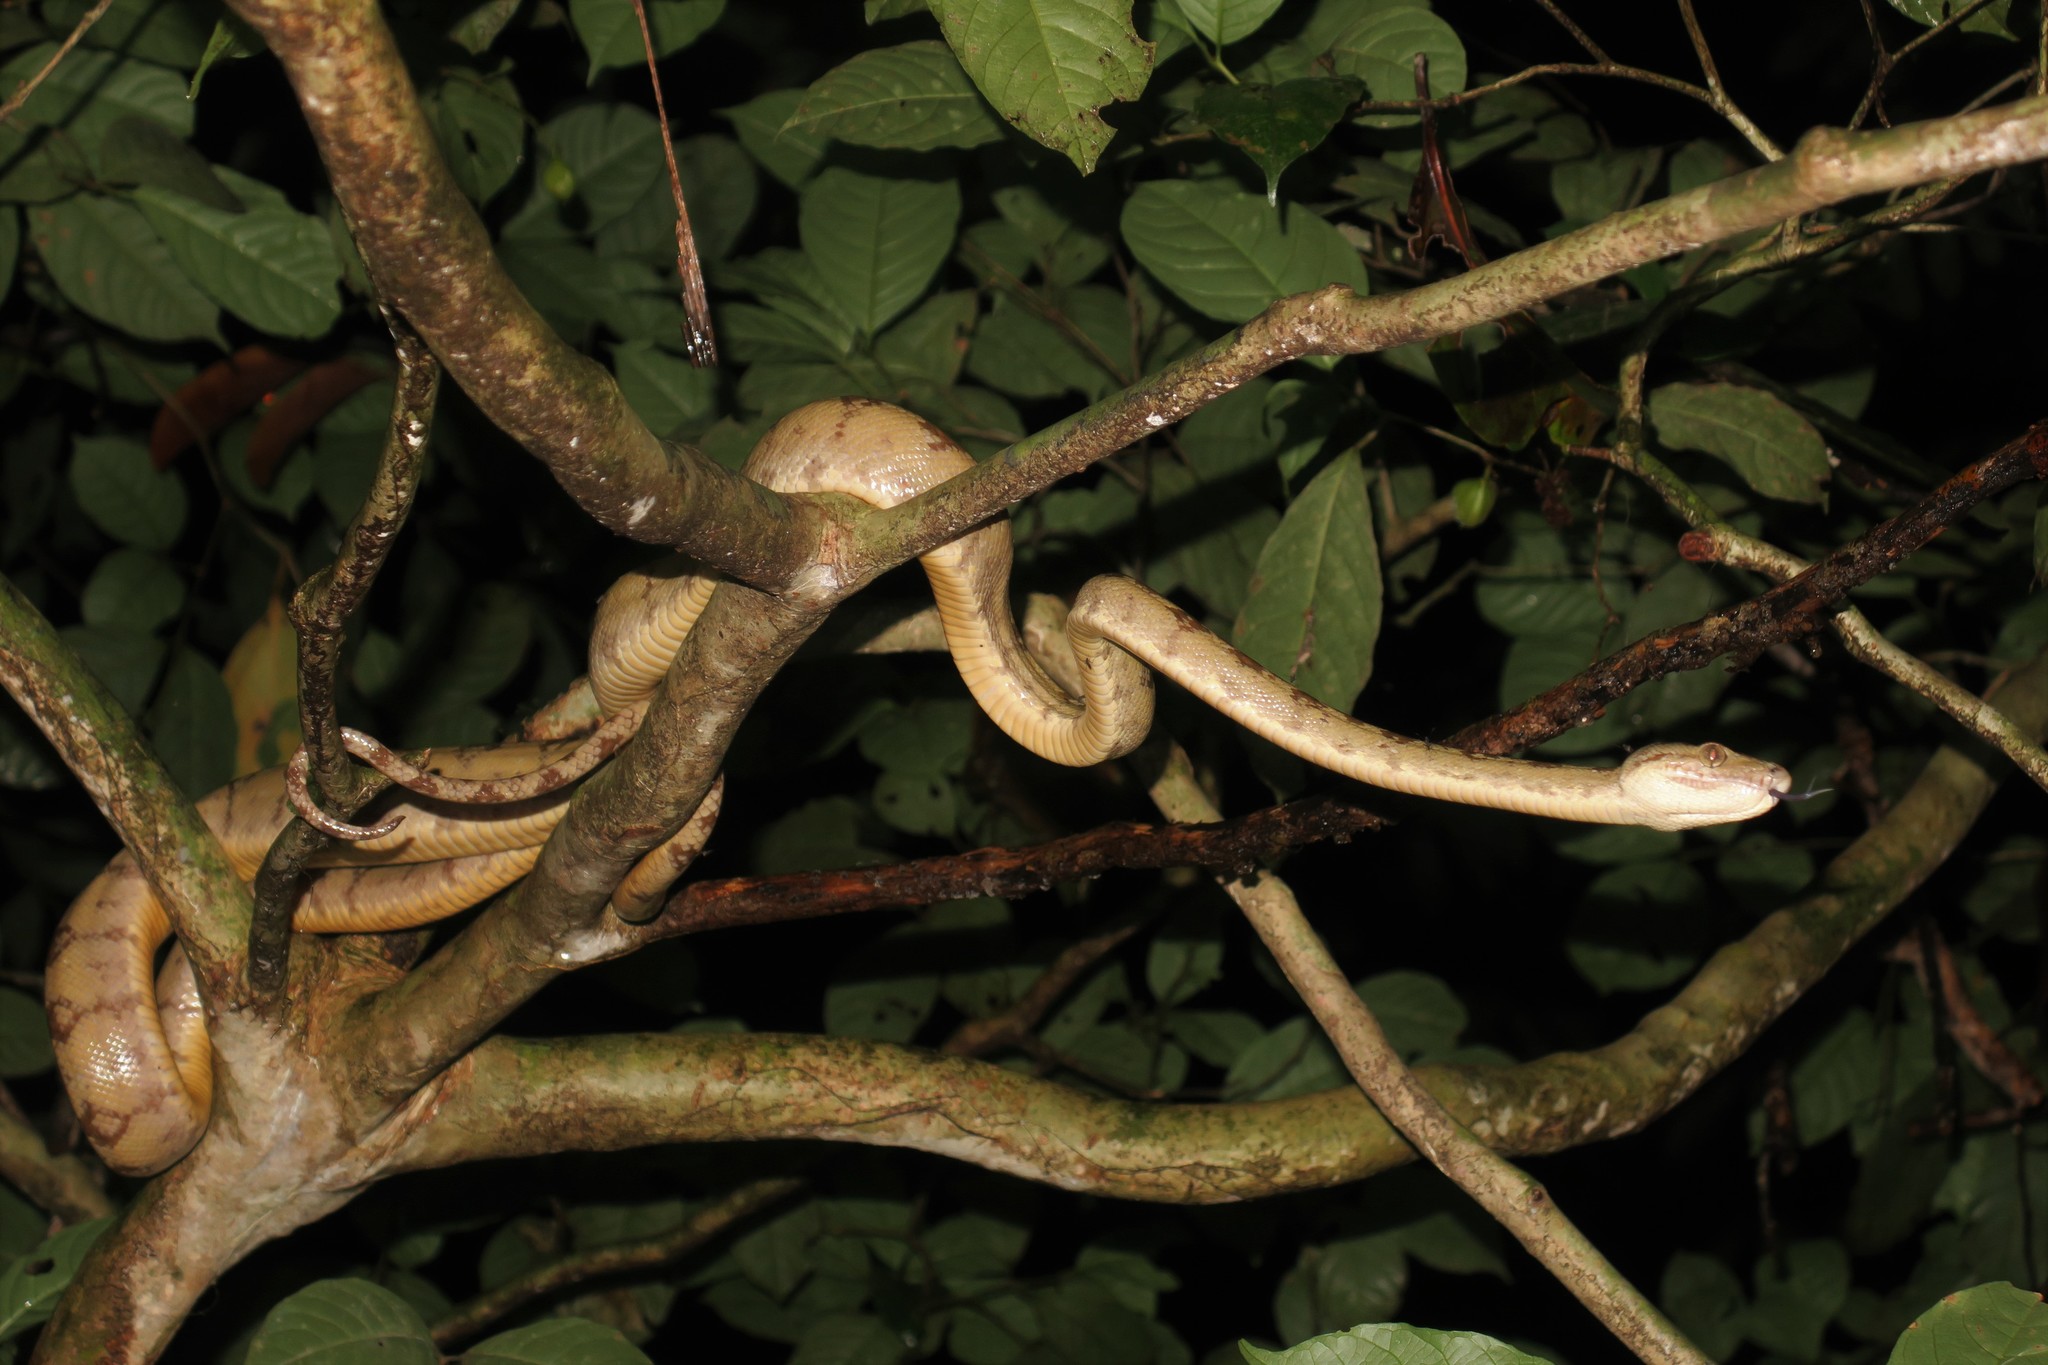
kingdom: Animalia
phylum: Chordata
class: Squamata
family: Boidae
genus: Corallus
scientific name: Corallus hortulana
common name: Garden tree boa
